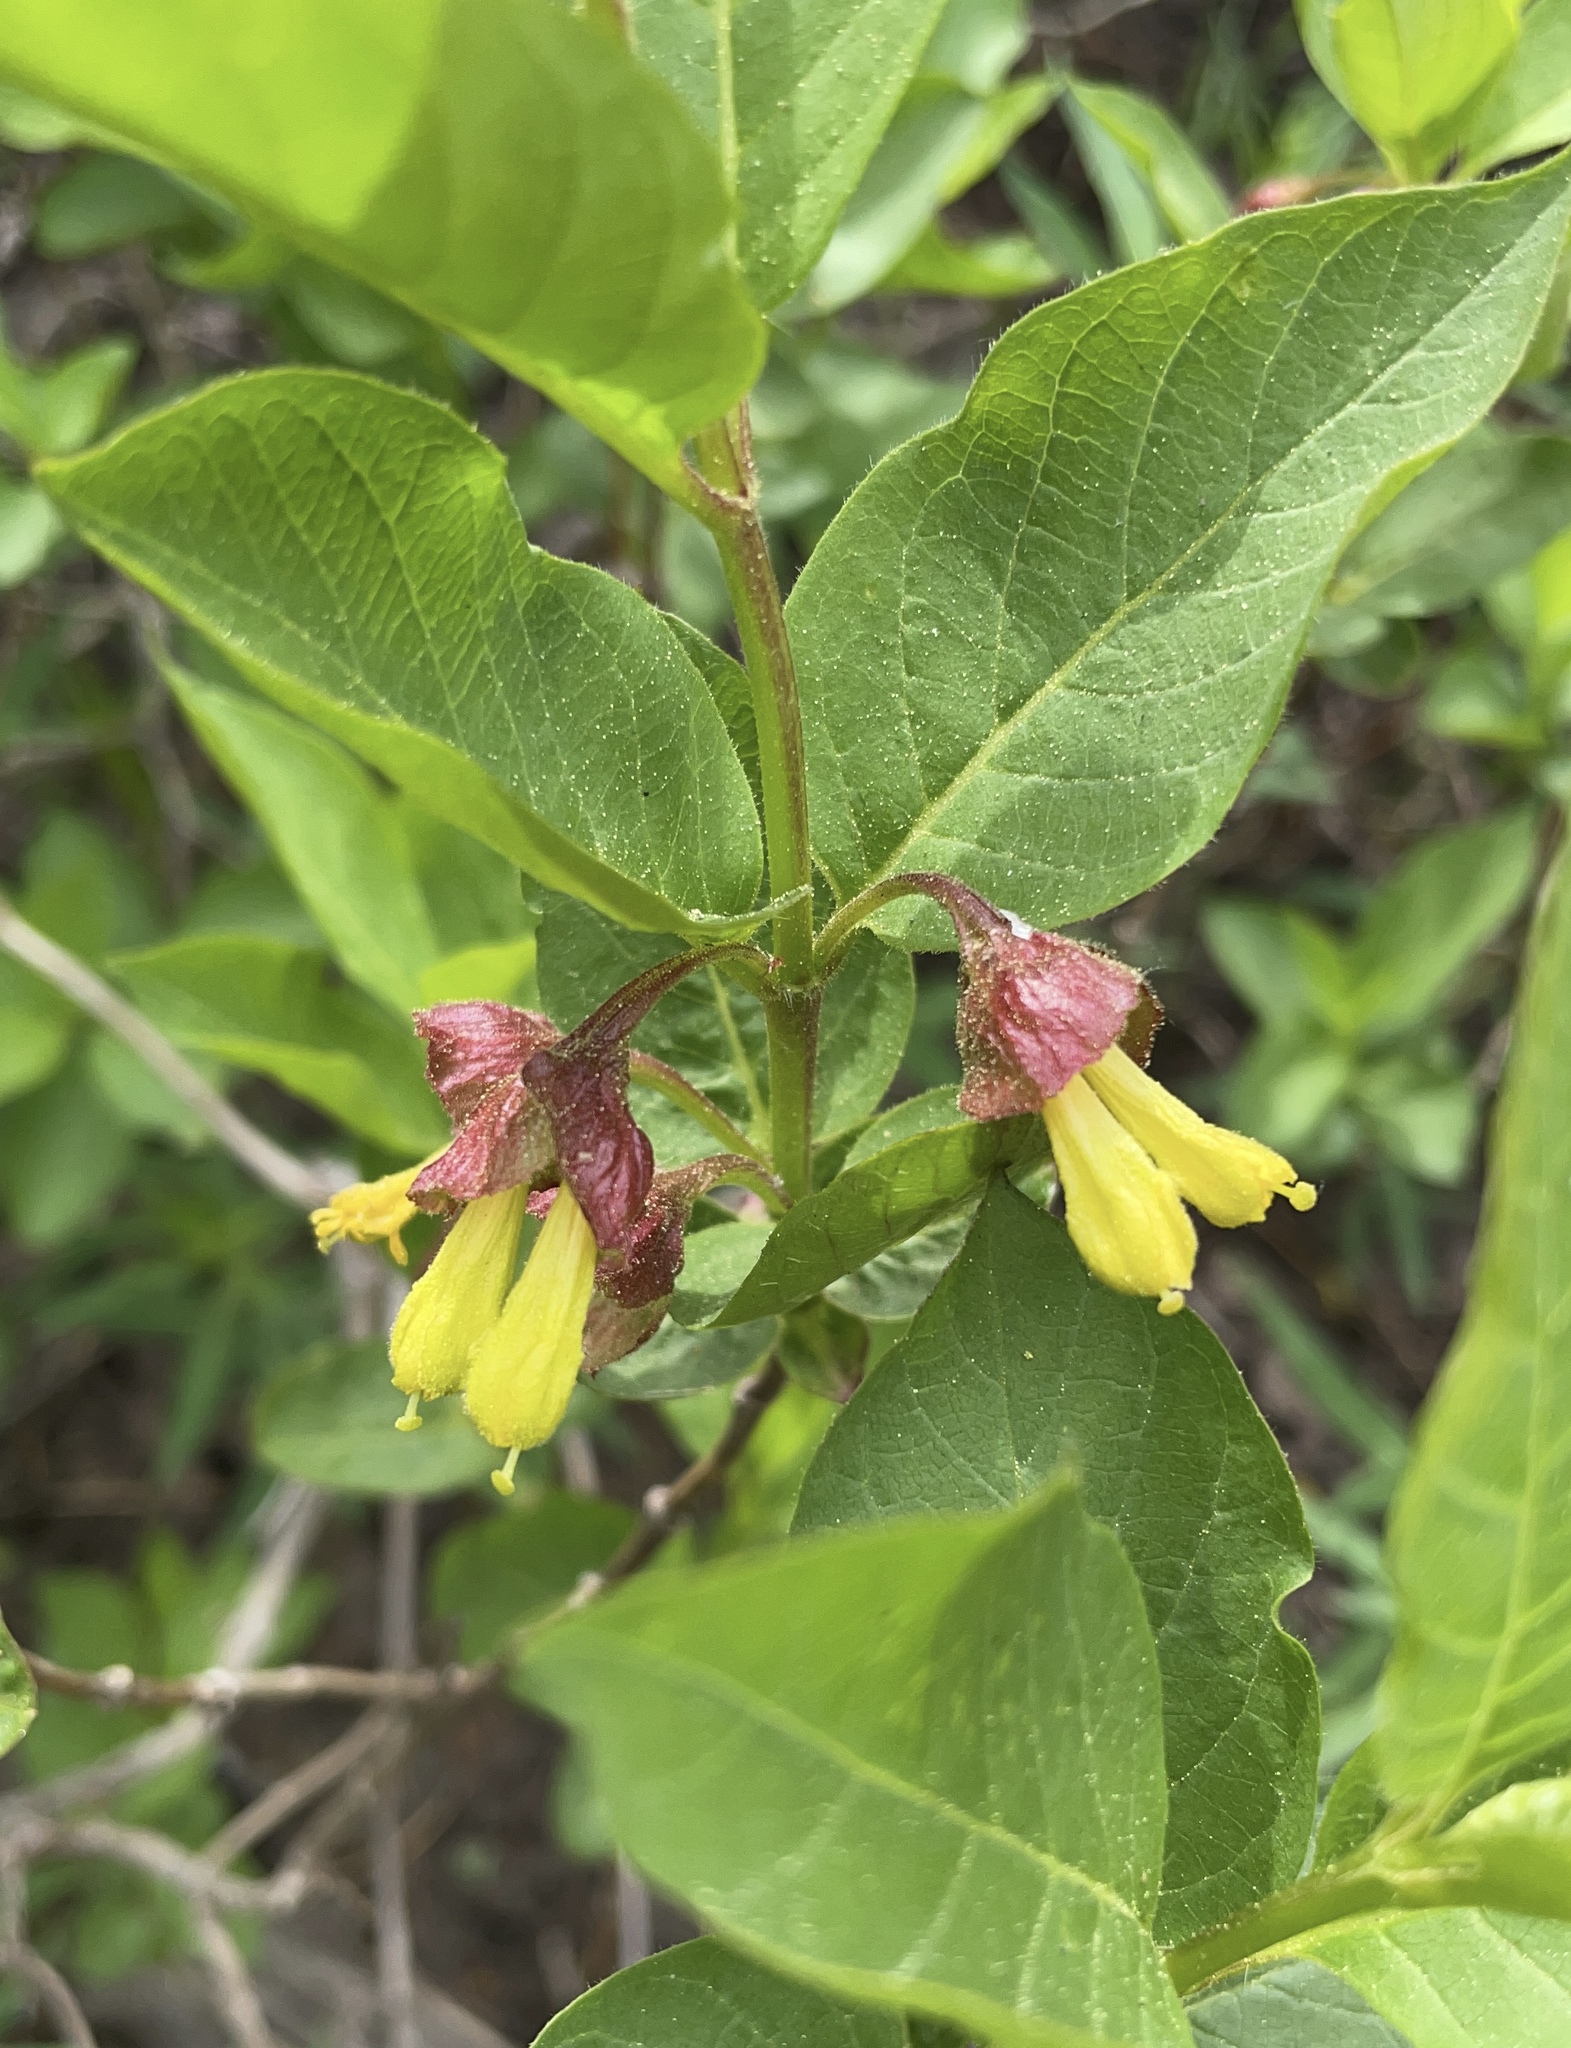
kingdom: Plantae
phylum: Tracheophyta
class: Magnoliopsida
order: Dipsacales
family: Caprifoliaceae
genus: Lonicera
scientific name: Lonicera involucrata
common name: Californian honeysuckle
